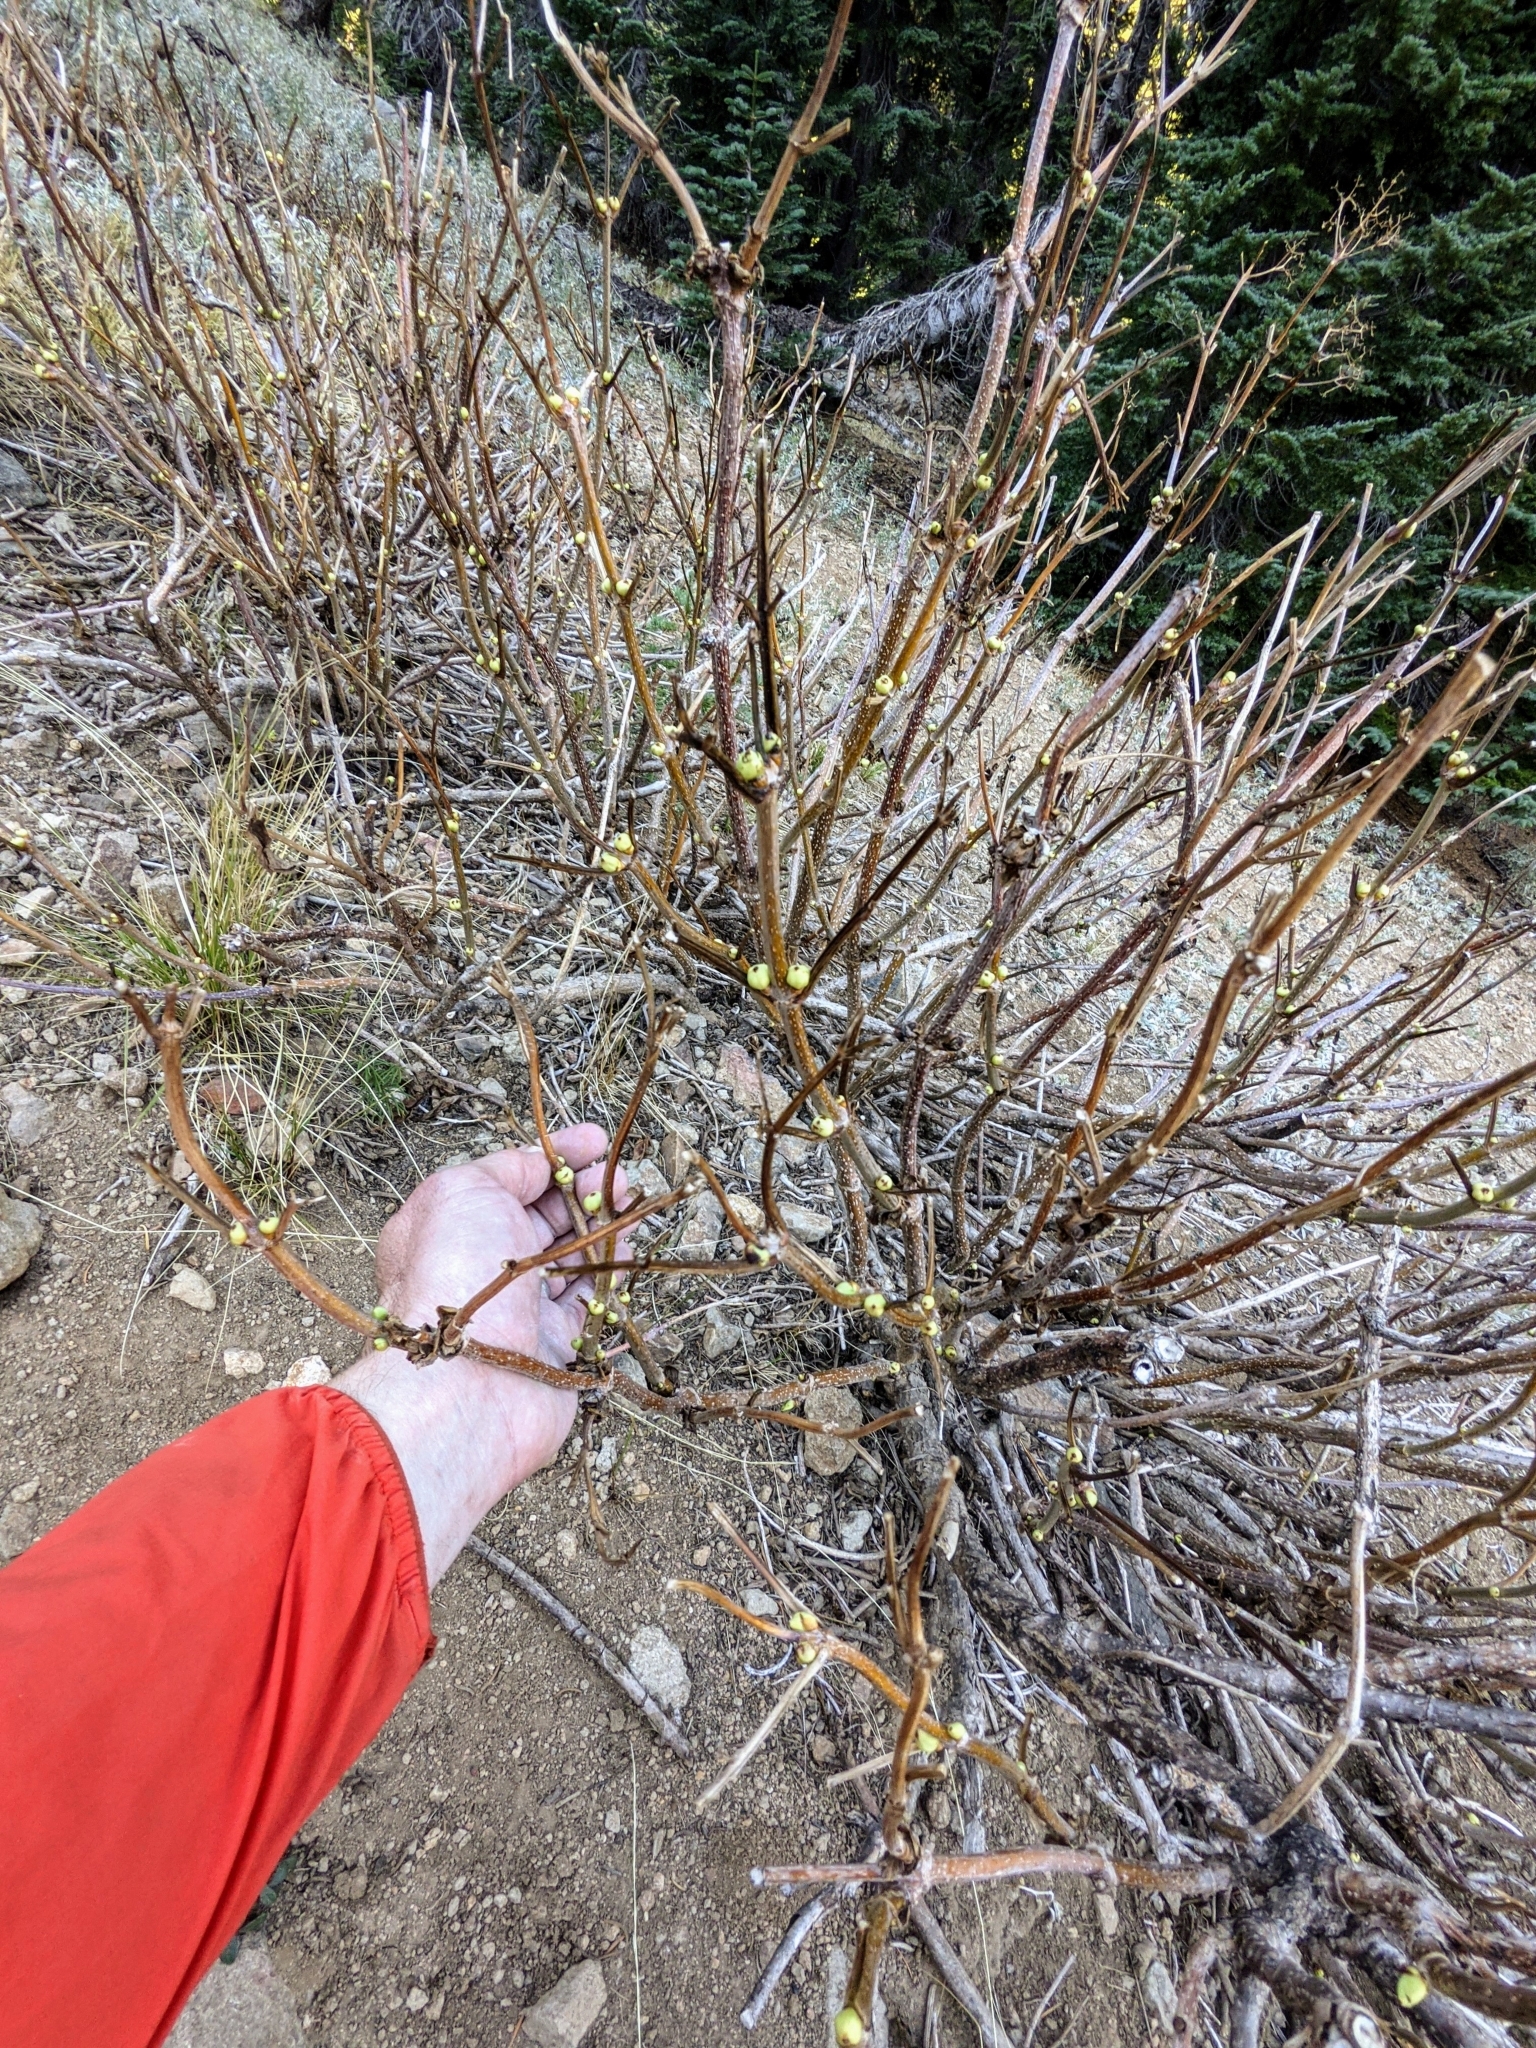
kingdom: Plantae
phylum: Tracheophyta
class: Magnoliopsida
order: Dipsacales
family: Viburnaceae
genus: Sambucus
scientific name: Sambucus racemosa
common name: Red-berried elder
